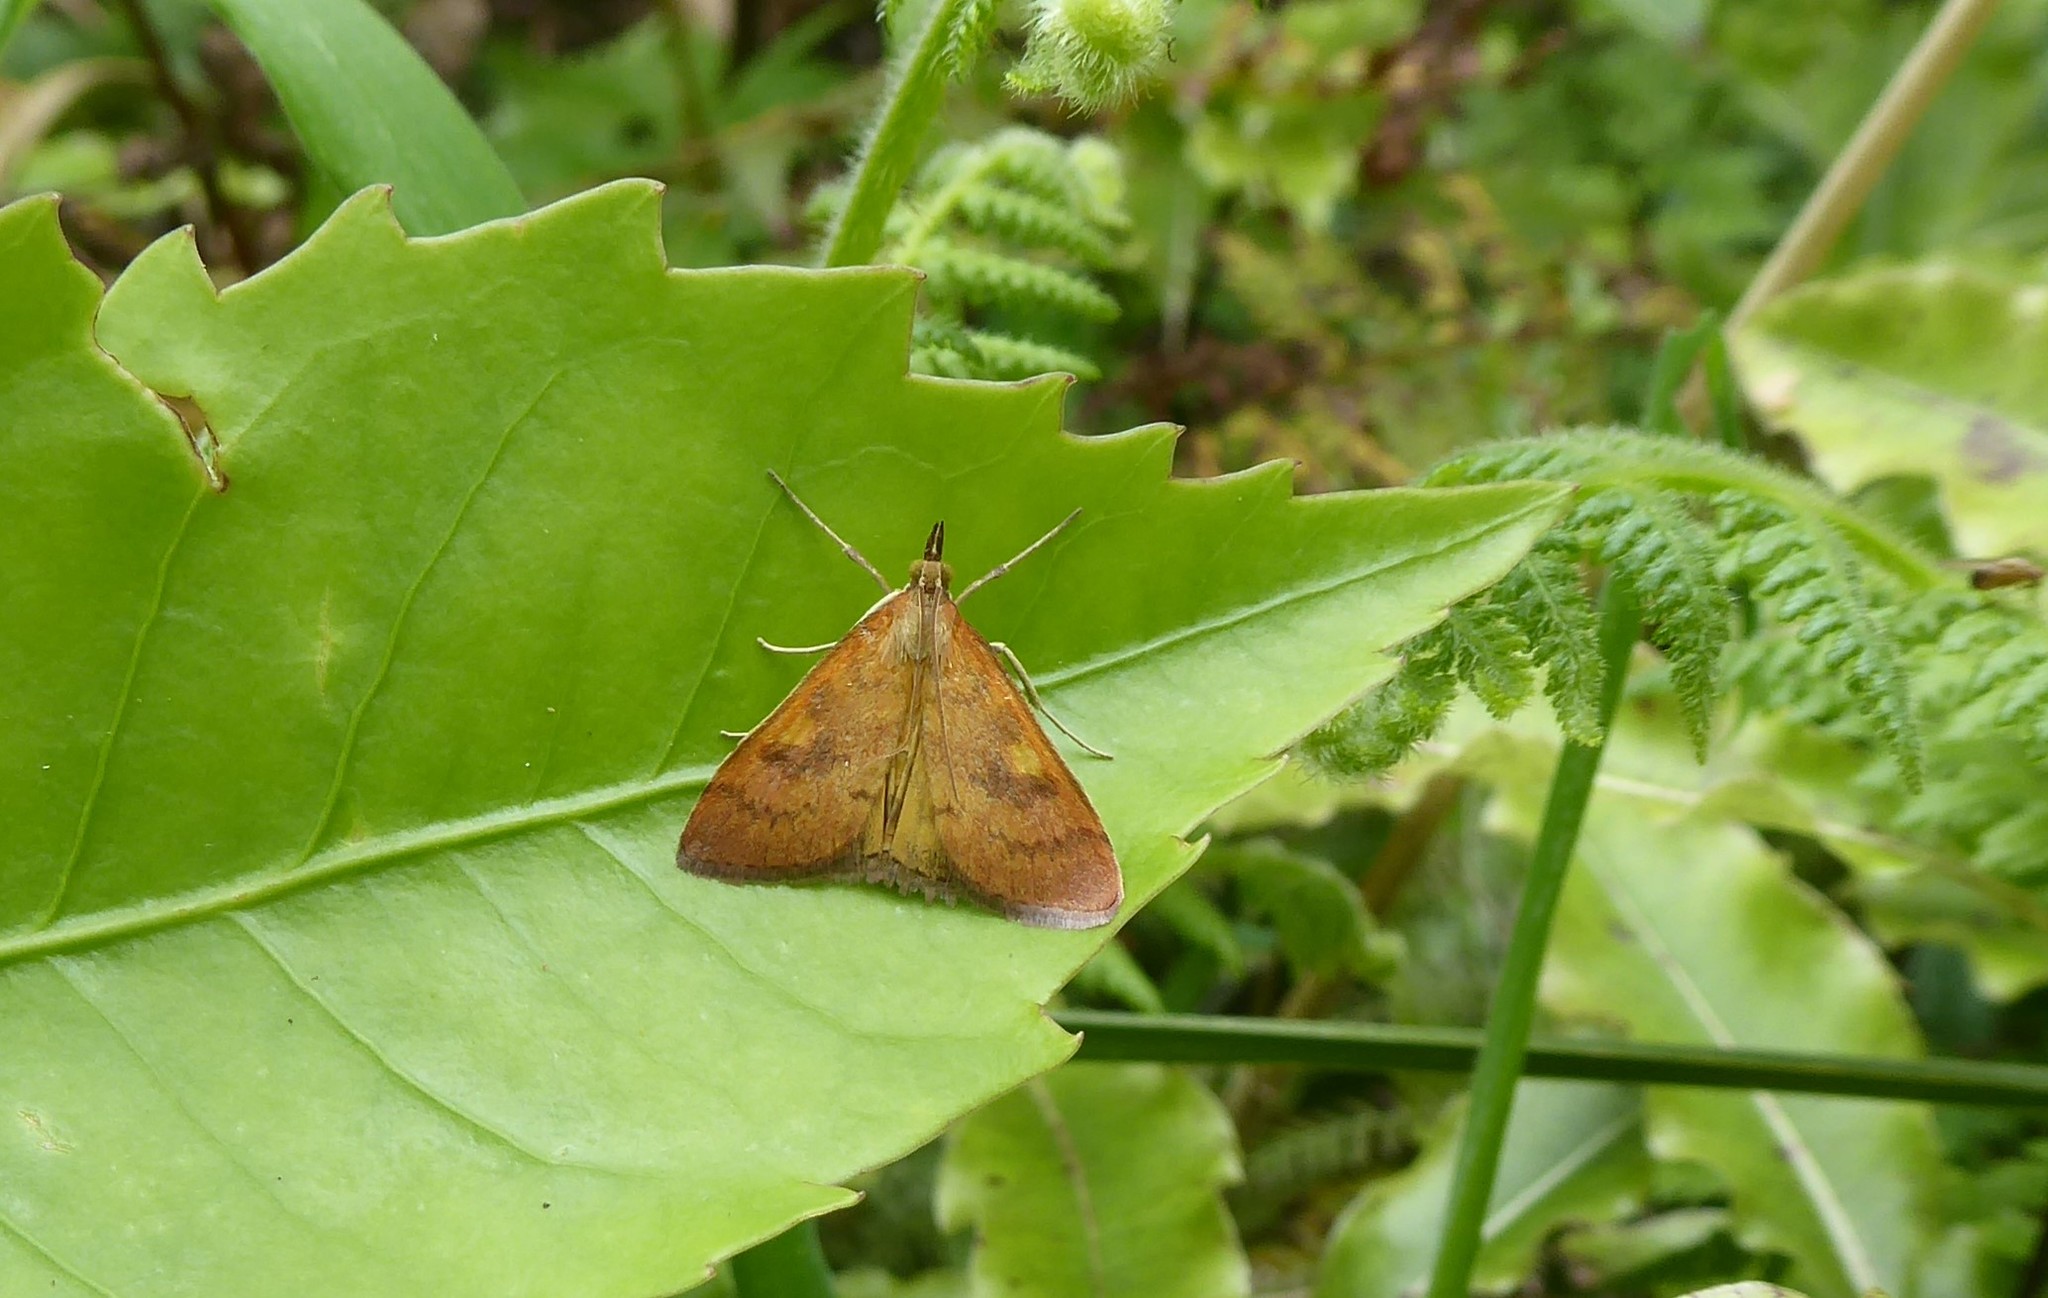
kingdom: Animalia
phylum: Arthropoda
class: Insecta
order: Lepidoptera
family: Crambidae
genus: Udea
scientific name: Udea Mnesictena flavidalis
